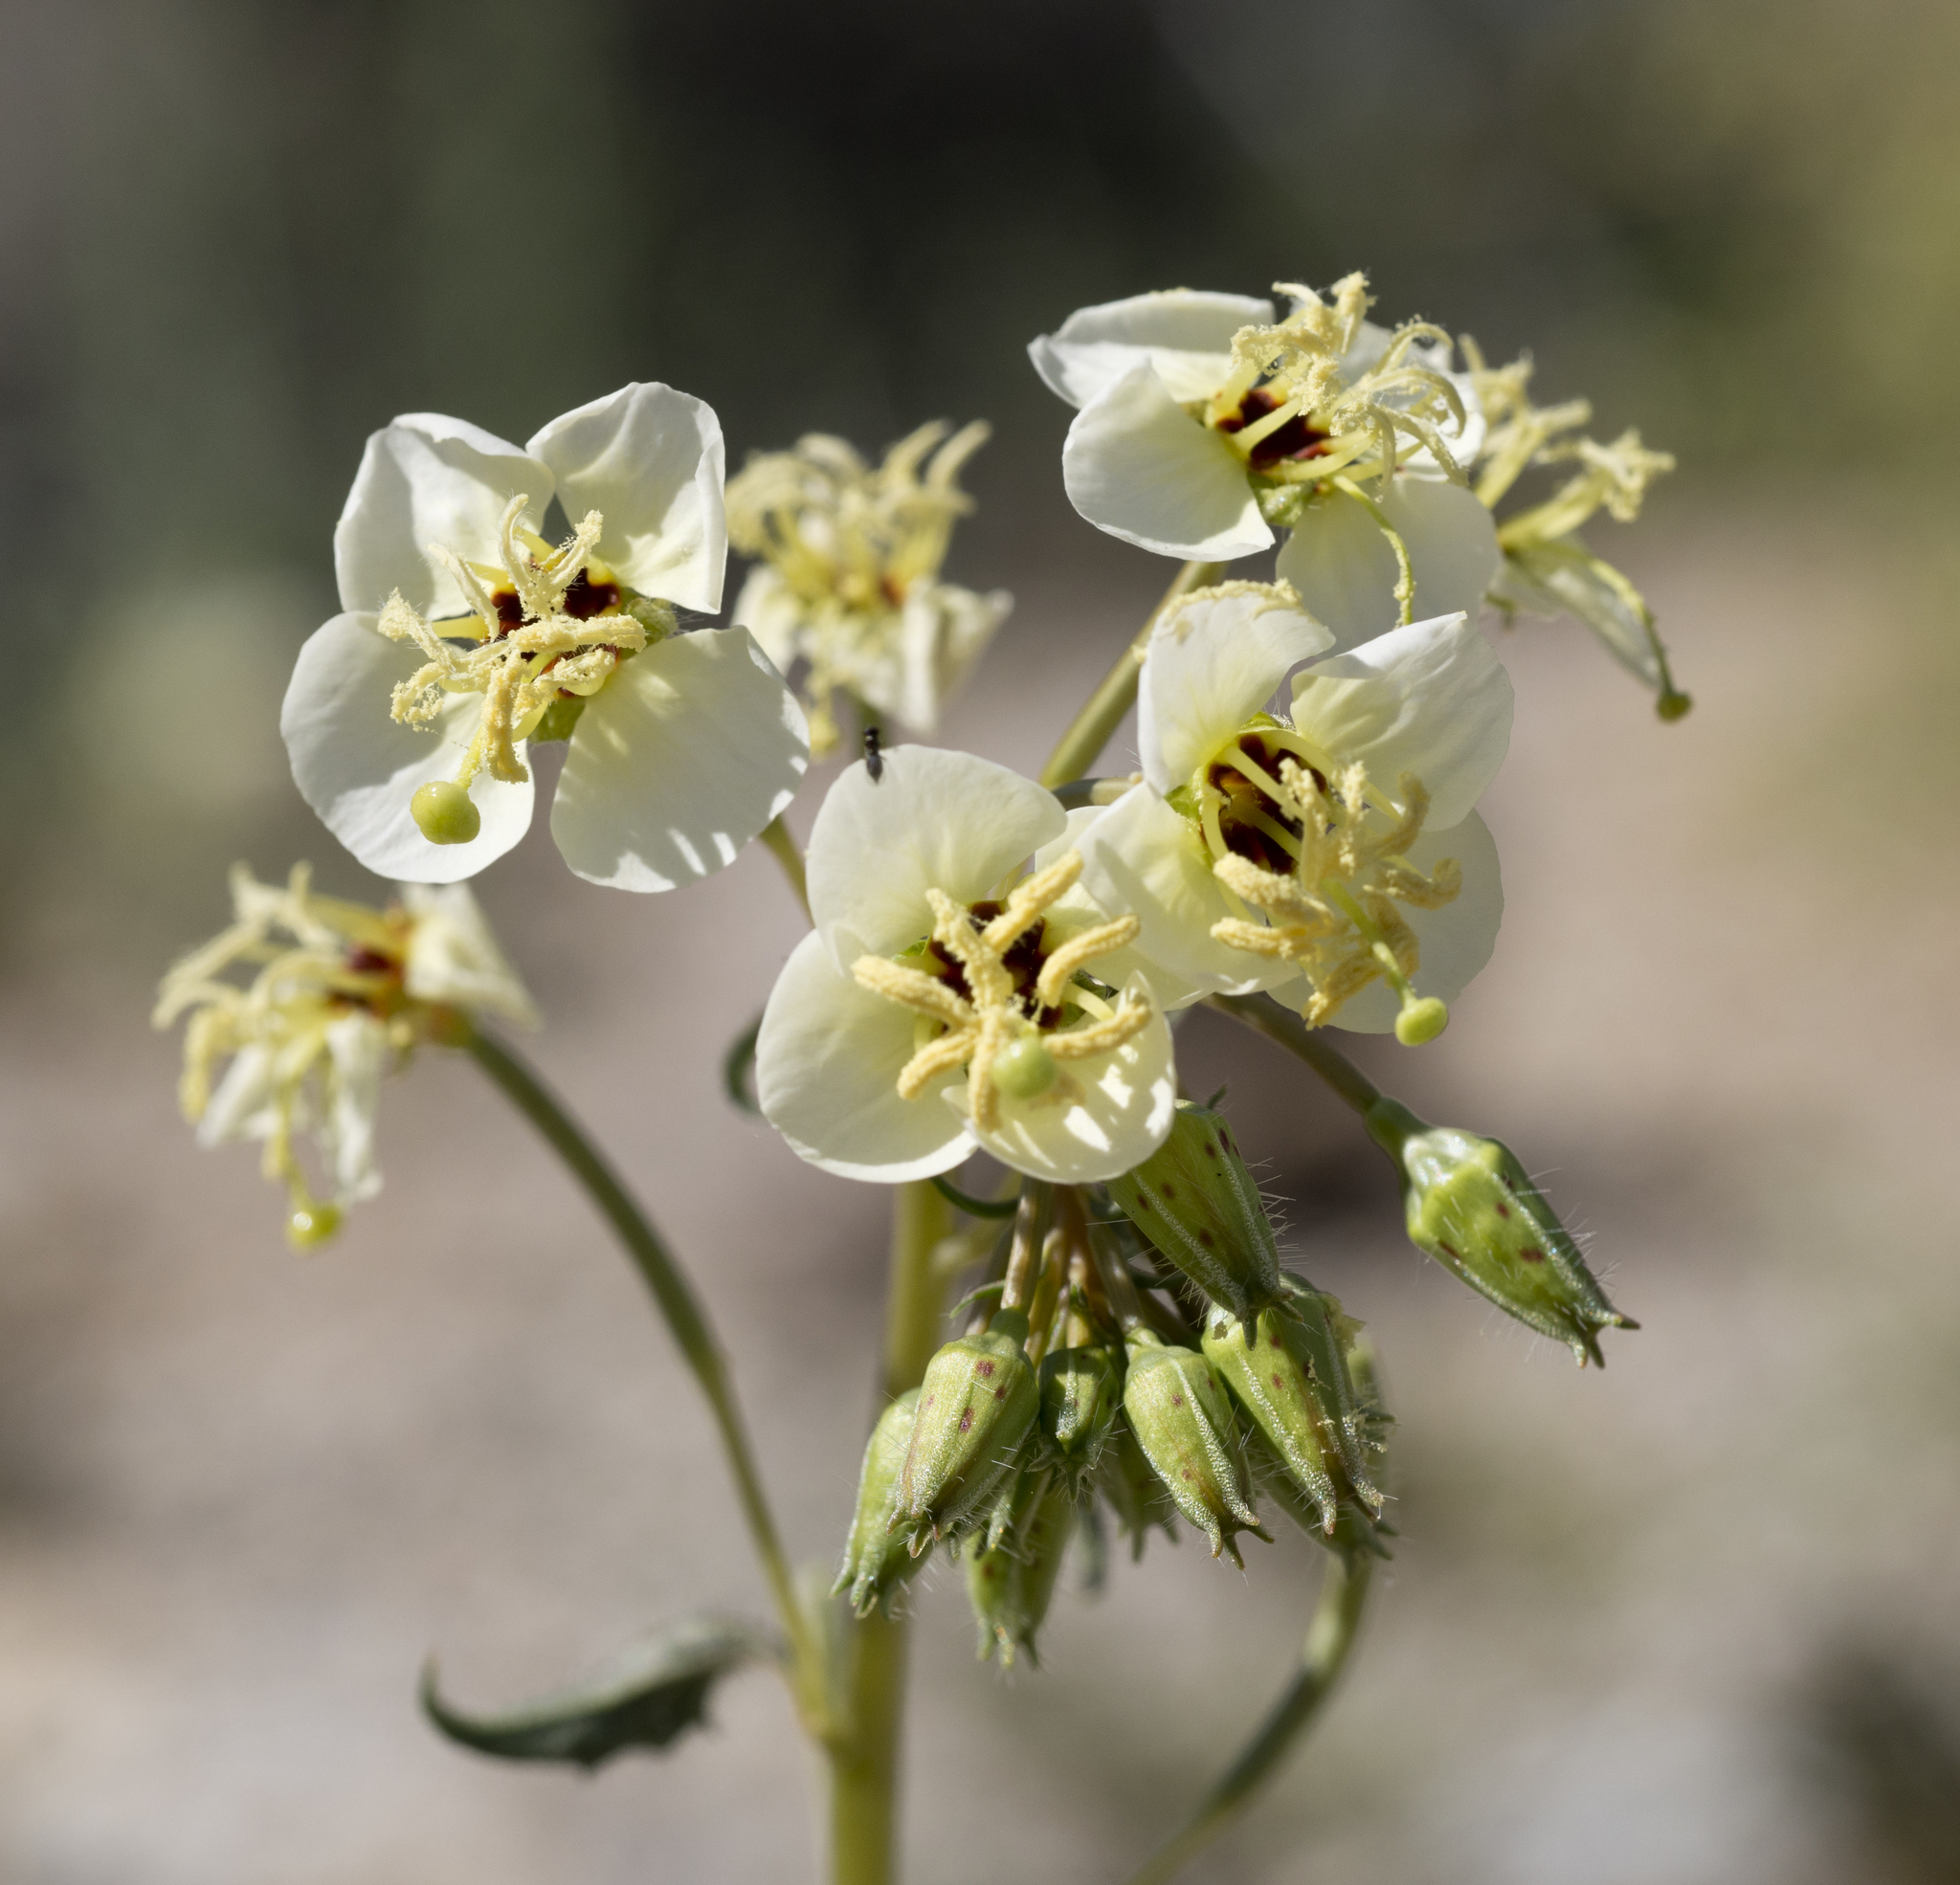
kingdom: Plantae
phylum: Tracheophyta
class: Magnoliopsida
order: Myrtales
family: Onagraceae
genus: Chylismia
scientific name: Chylismia claviformis
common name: Browneyes
